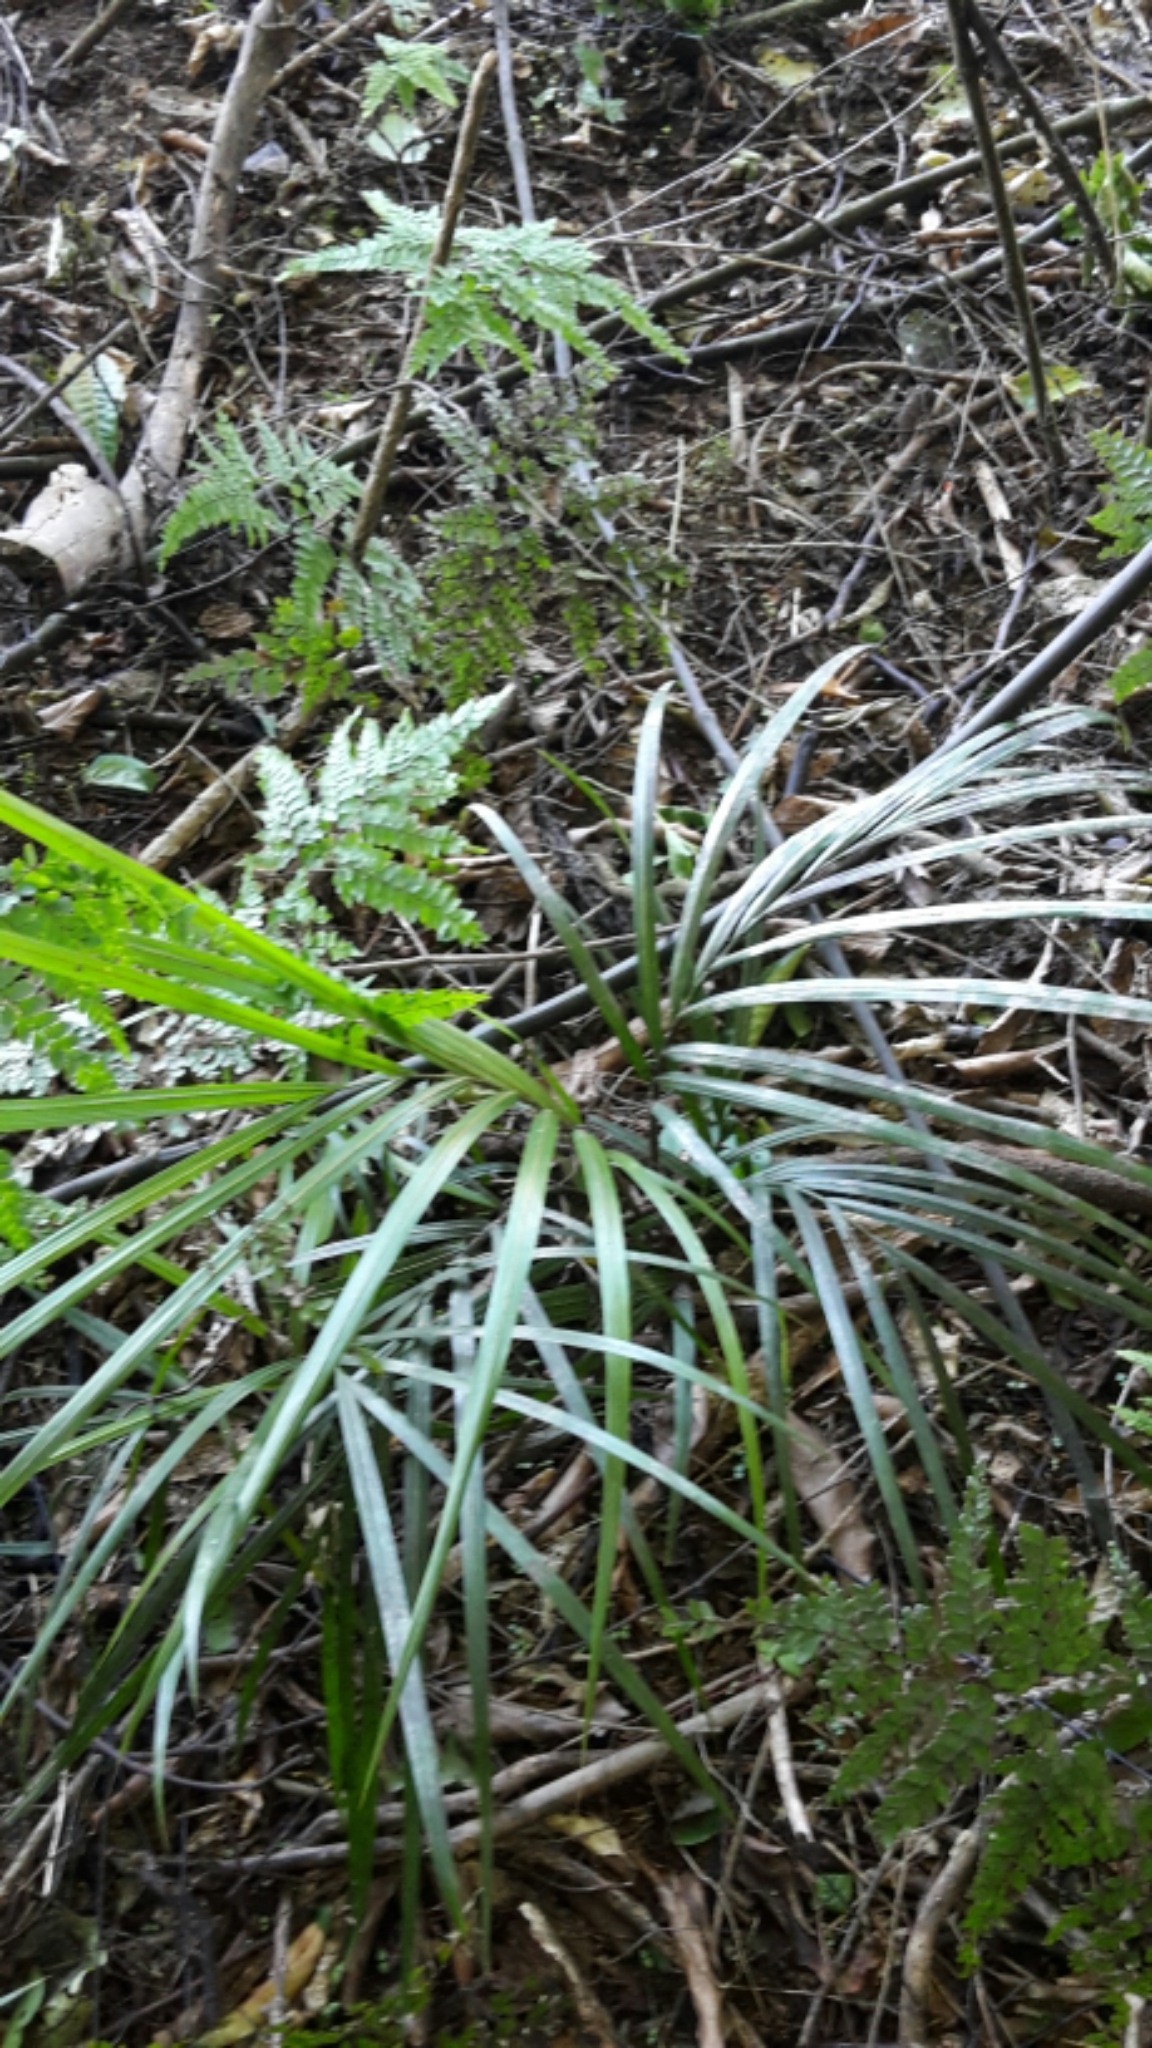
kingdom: Plantae
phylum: Tracheophyta
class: Liliopsida
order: Arecales
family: Arecaceae
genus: Rhopalostylis
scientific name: Rhopalostylis sapida
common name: Feather-duster palm
